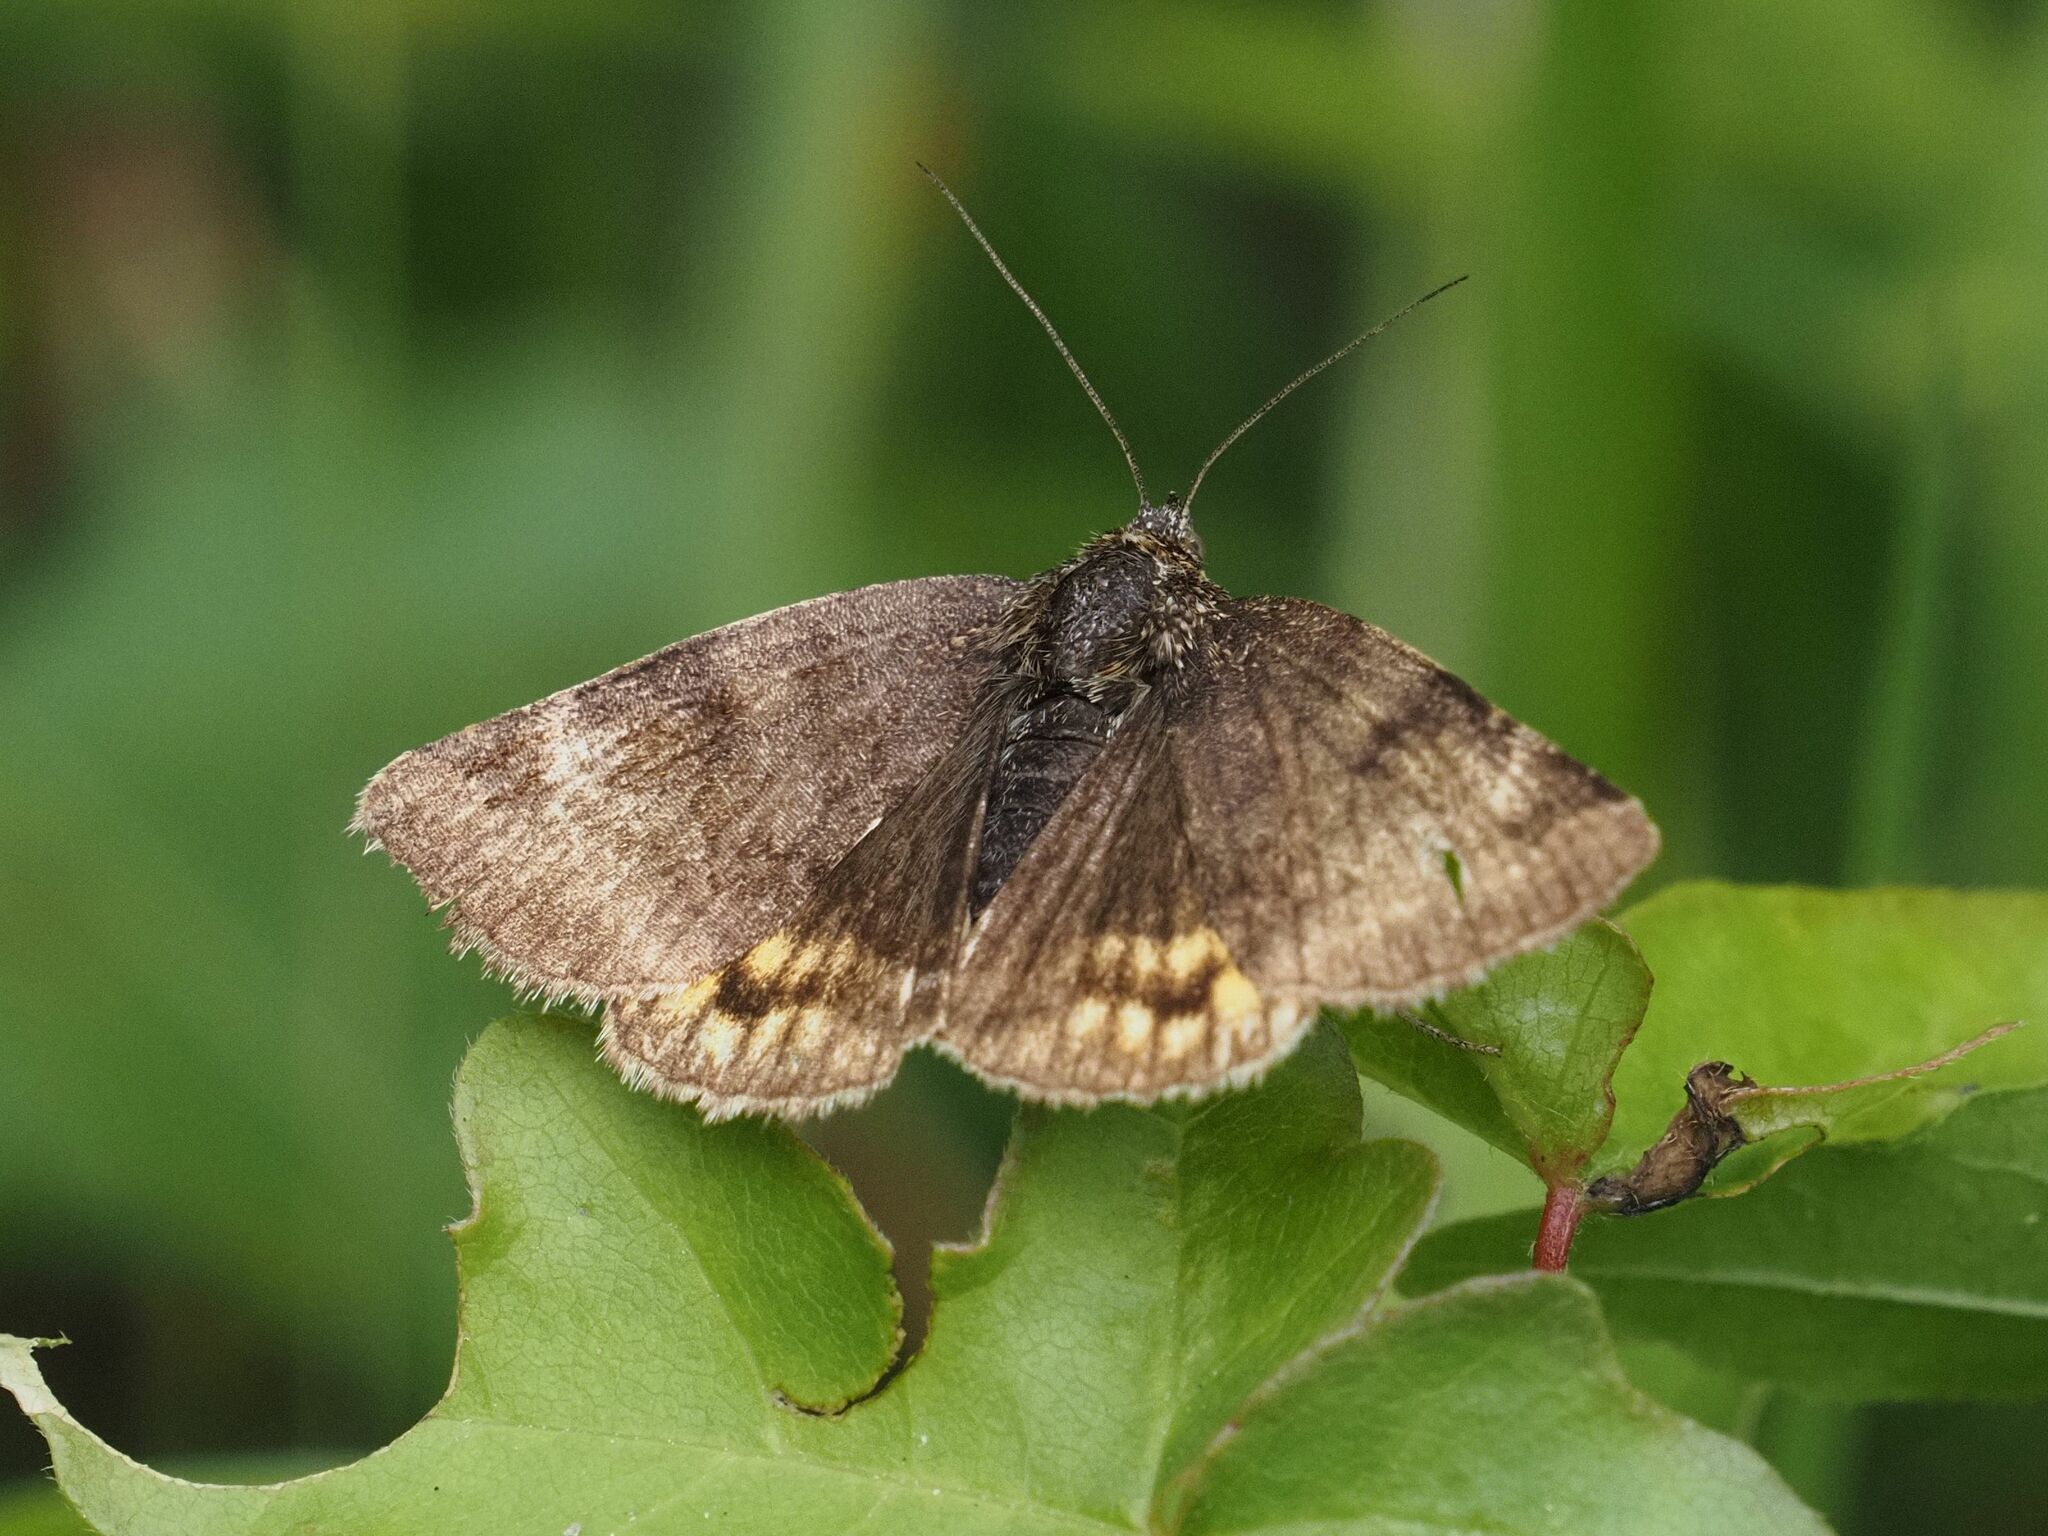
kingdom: Animalia
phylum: Arthropoda
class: Insecta
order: Lepidoptera
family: Erebidae
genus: Euclidia
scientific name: Euclidia glyphica
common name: Burnet companion
